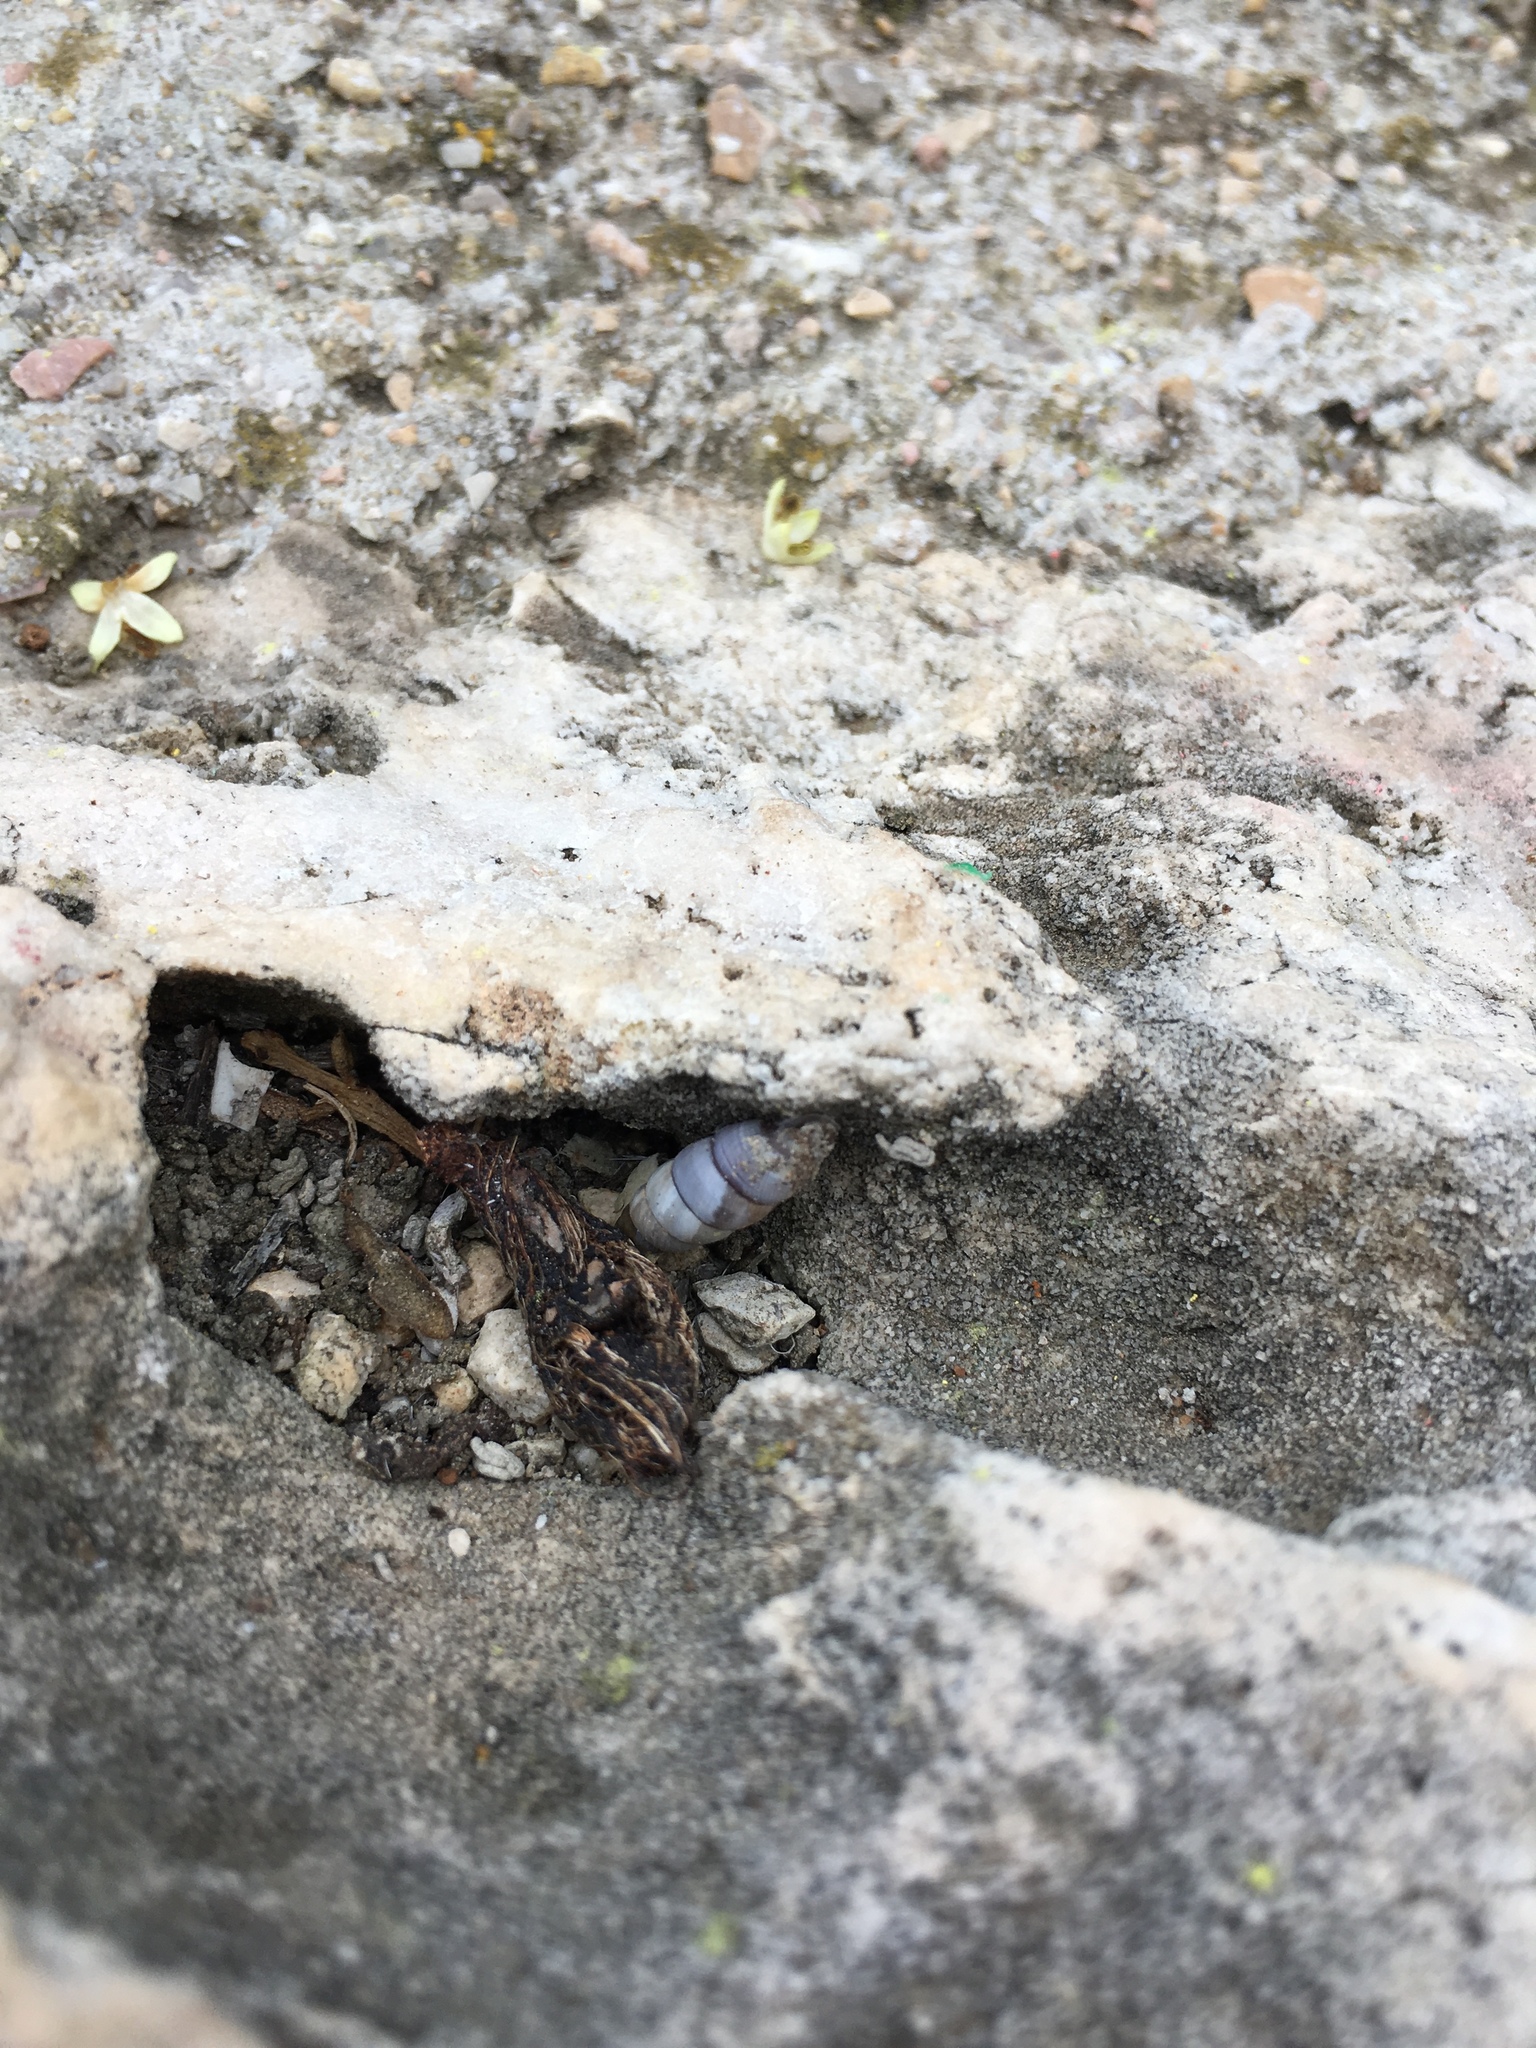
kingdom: Animalia
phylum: Mollusca
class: Gastropoda
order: Stylommatophora
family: Chondrinidae
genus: Solatopupa
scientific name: Solatopupa similis
